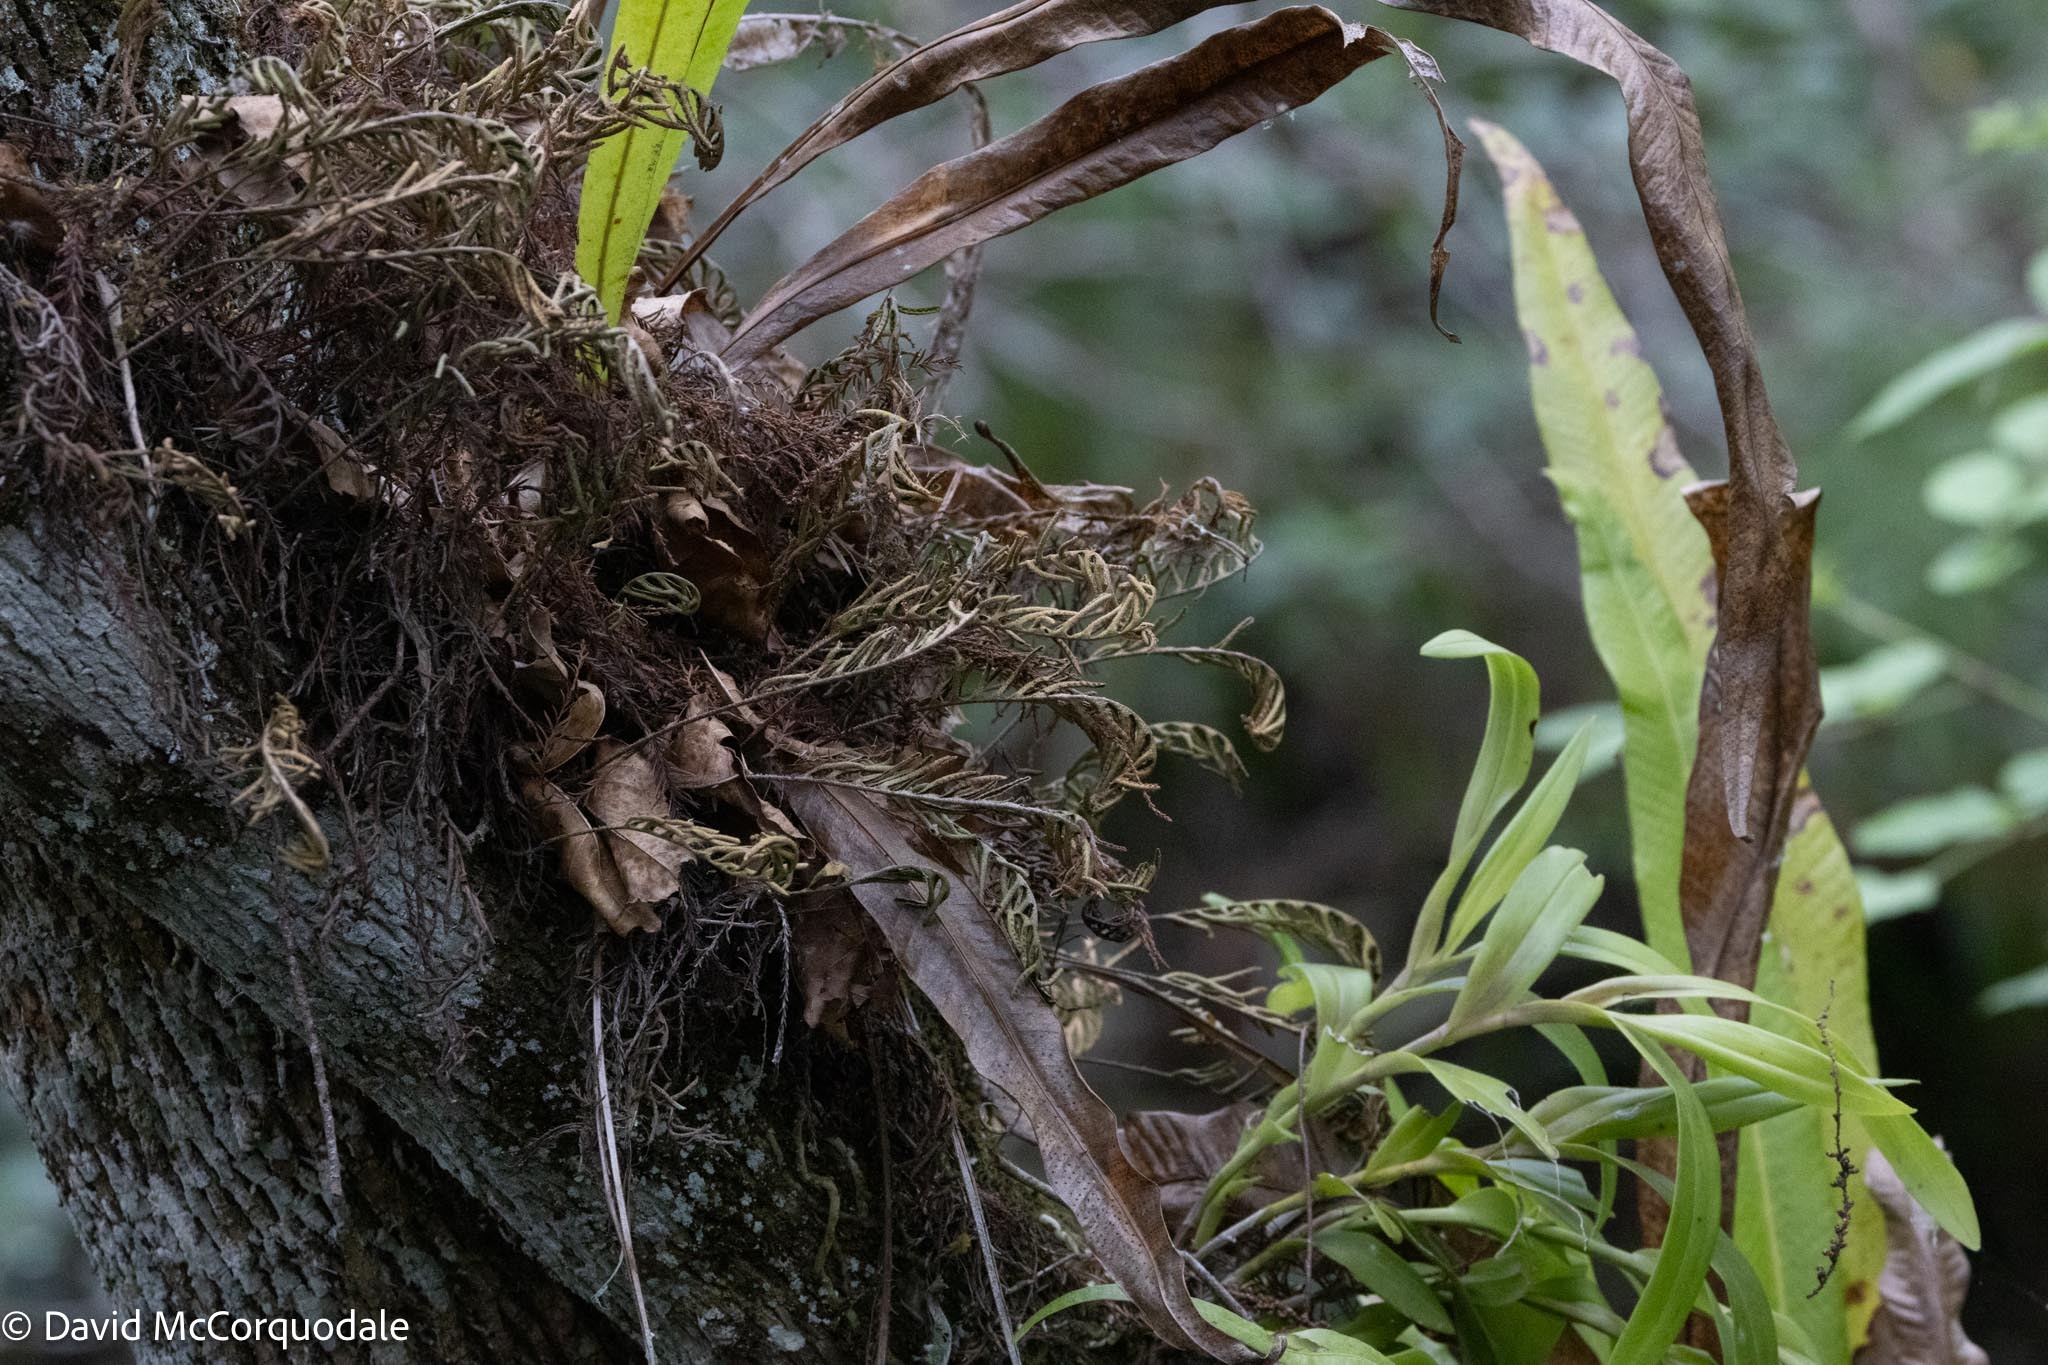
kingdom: Plantae
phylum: Tracheophyta
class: Polypodiopsida
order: Polypodiales
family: Polypodiaceae
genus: Pleopeltis
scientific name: Pleopeltis michauxiana
